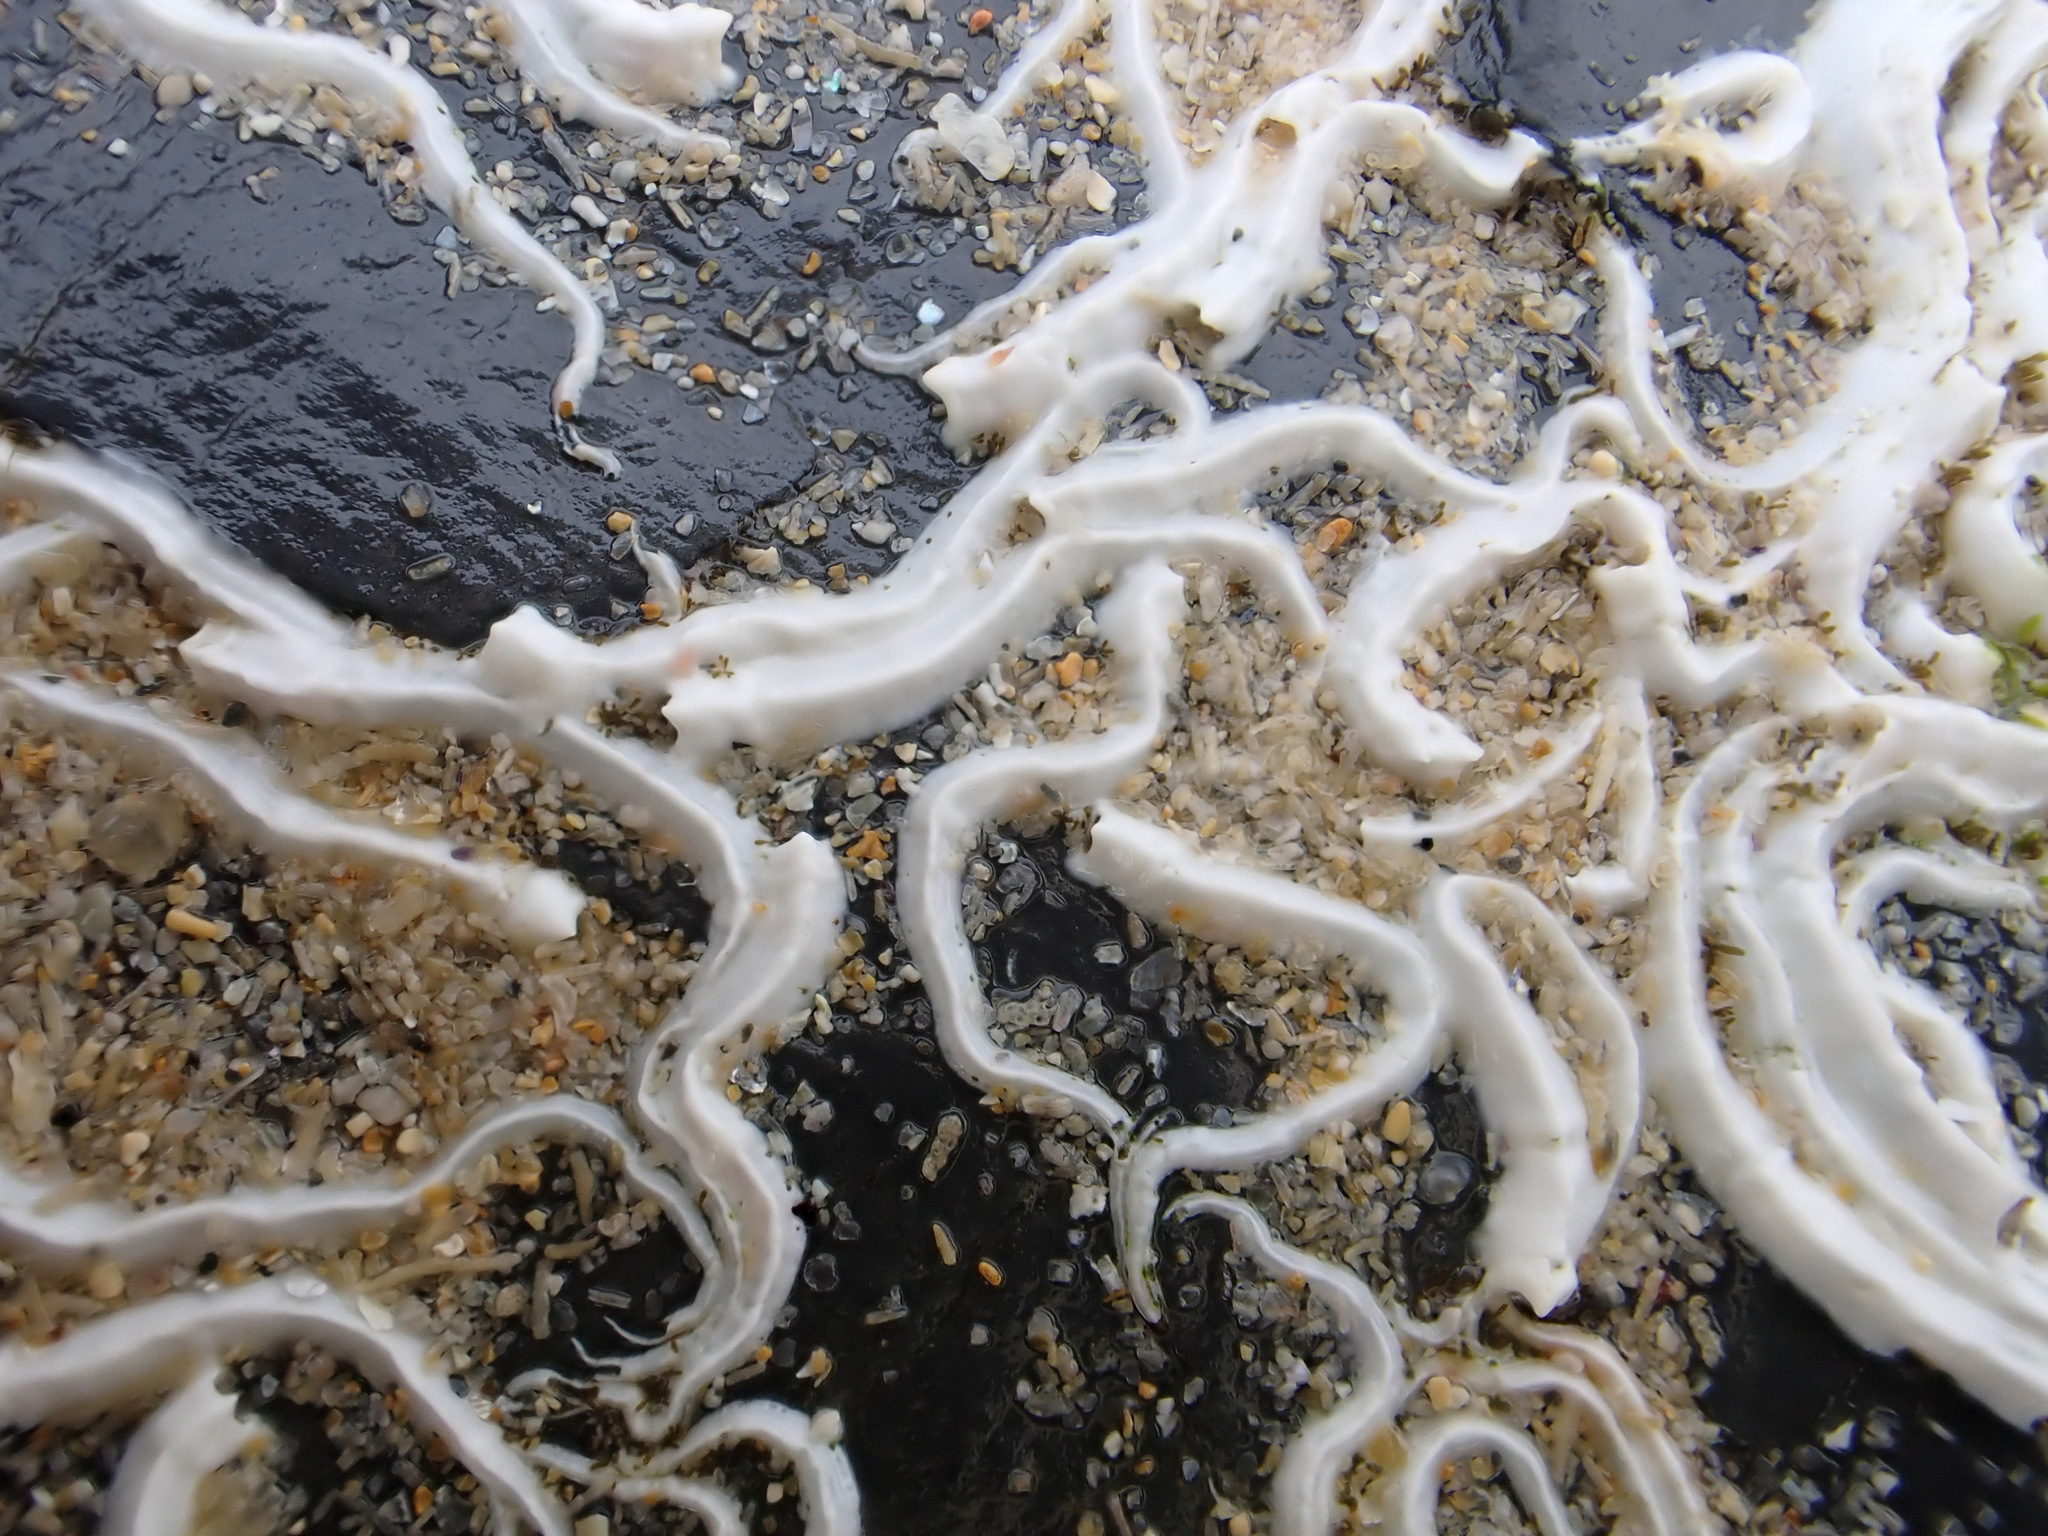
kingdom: Animalia
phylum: Annelida
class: Polychaeta
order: Sabellida
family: Serpulidae
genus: Spirobranchus
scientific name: Spirobranchus triqueter
